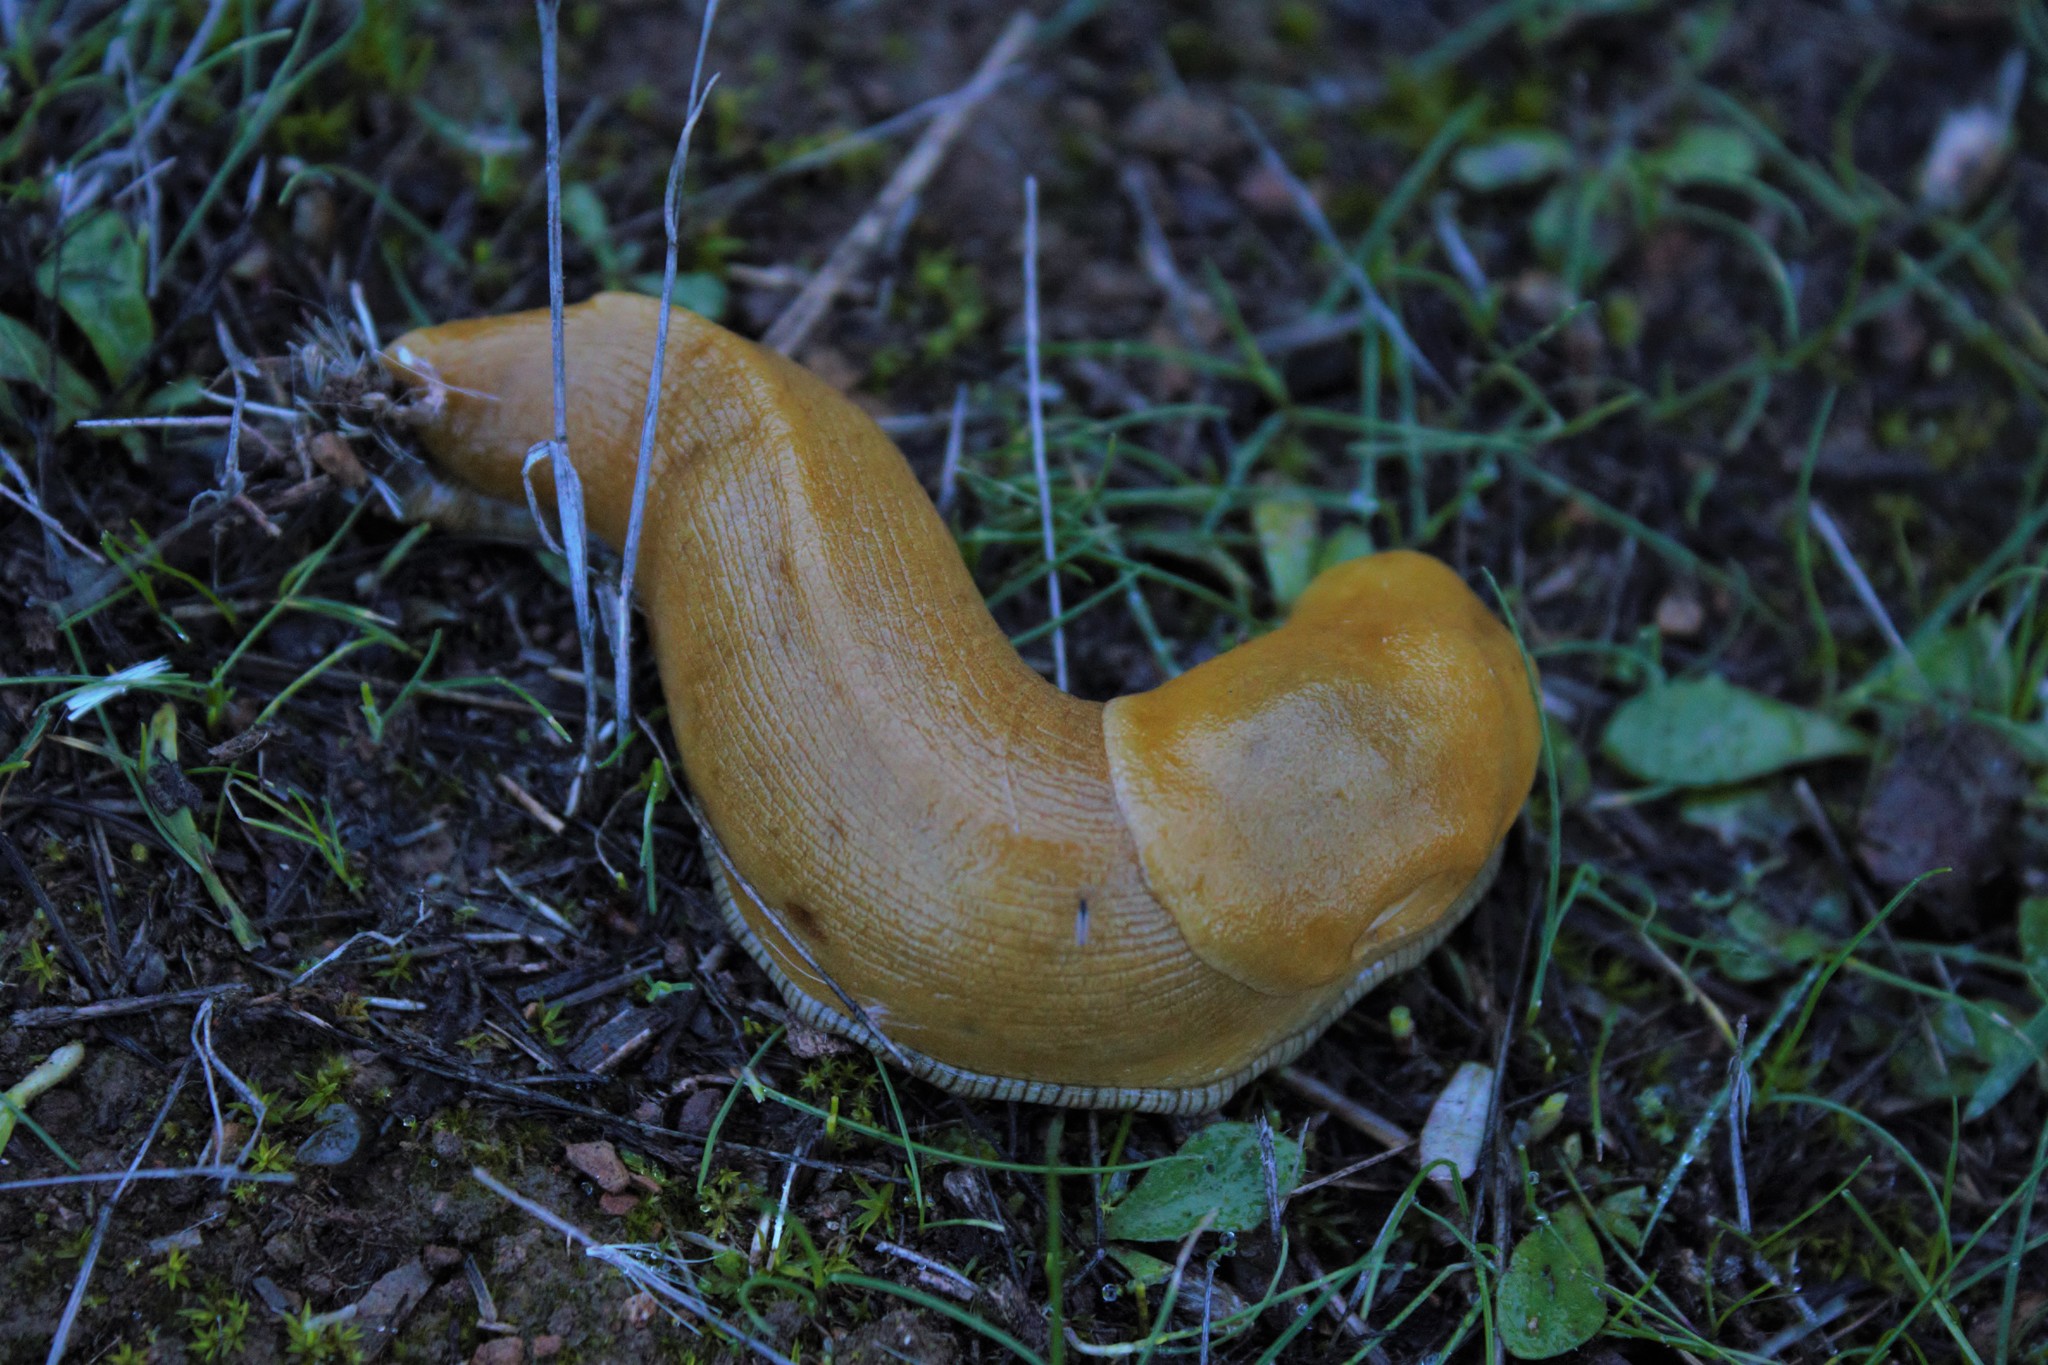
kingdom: Animalia
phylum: Mollusca
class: Gastropoda
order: Stylommatophora
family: Ariolimacidae
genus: Ariolimax
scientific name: Ariolimax brachyphallus
